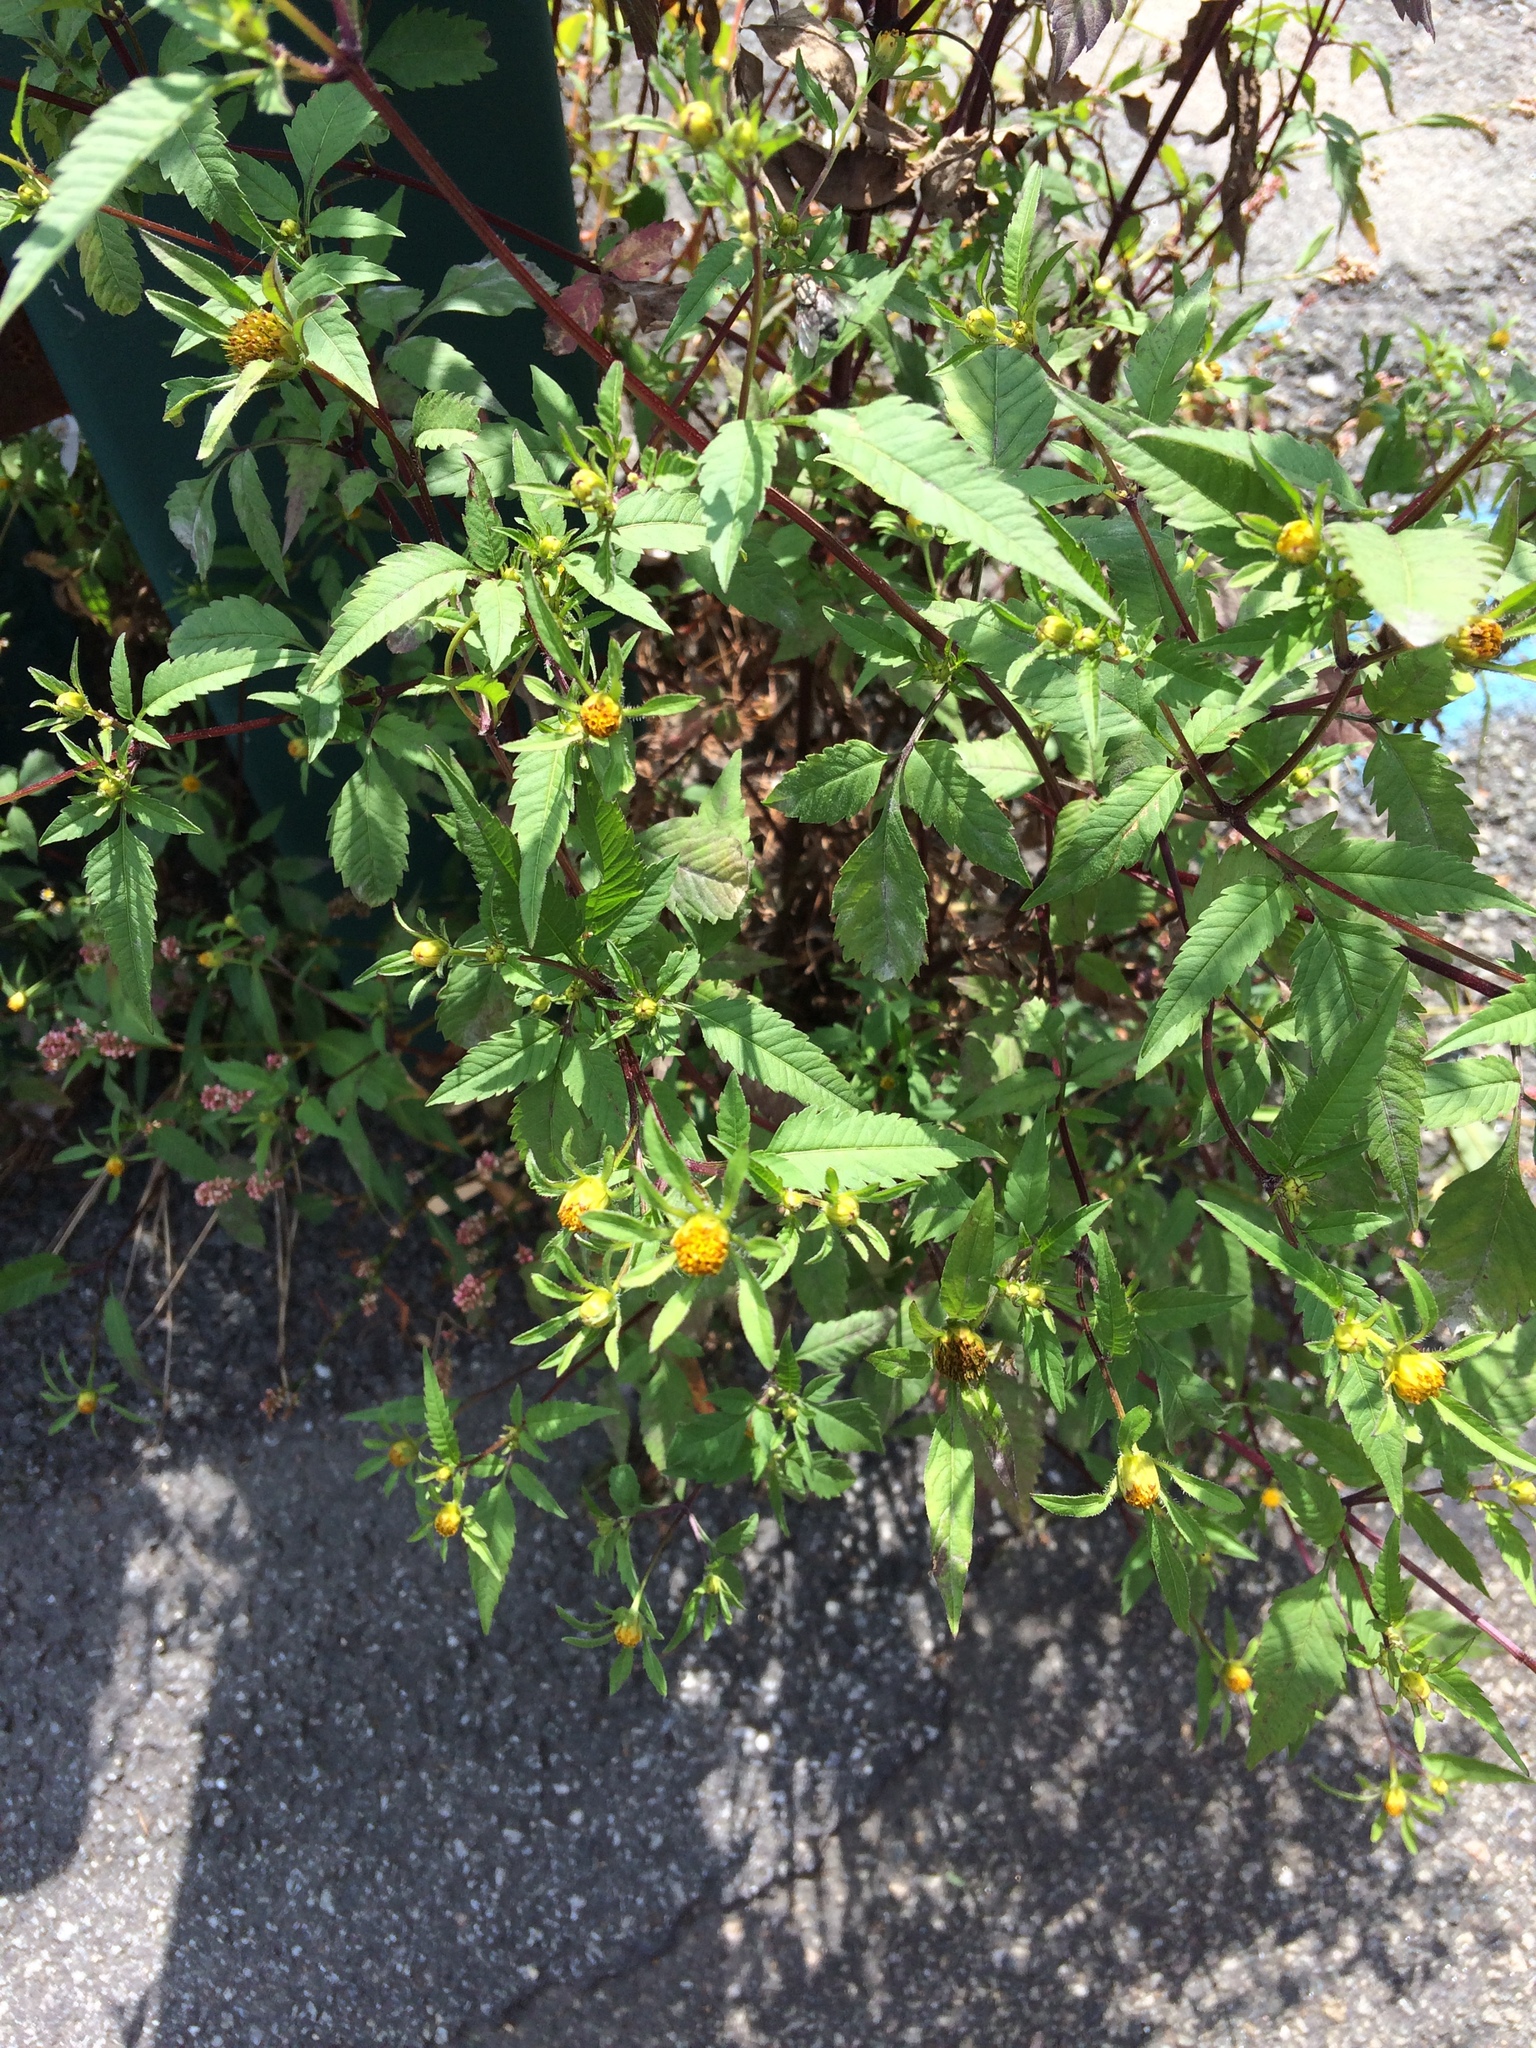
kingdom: Plantae
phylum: Tracheophyta
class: Magnoliopsida
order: Asterales
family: Asteraceae
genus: Bidens
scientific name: Bidens frondosa
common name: Beggarticks
